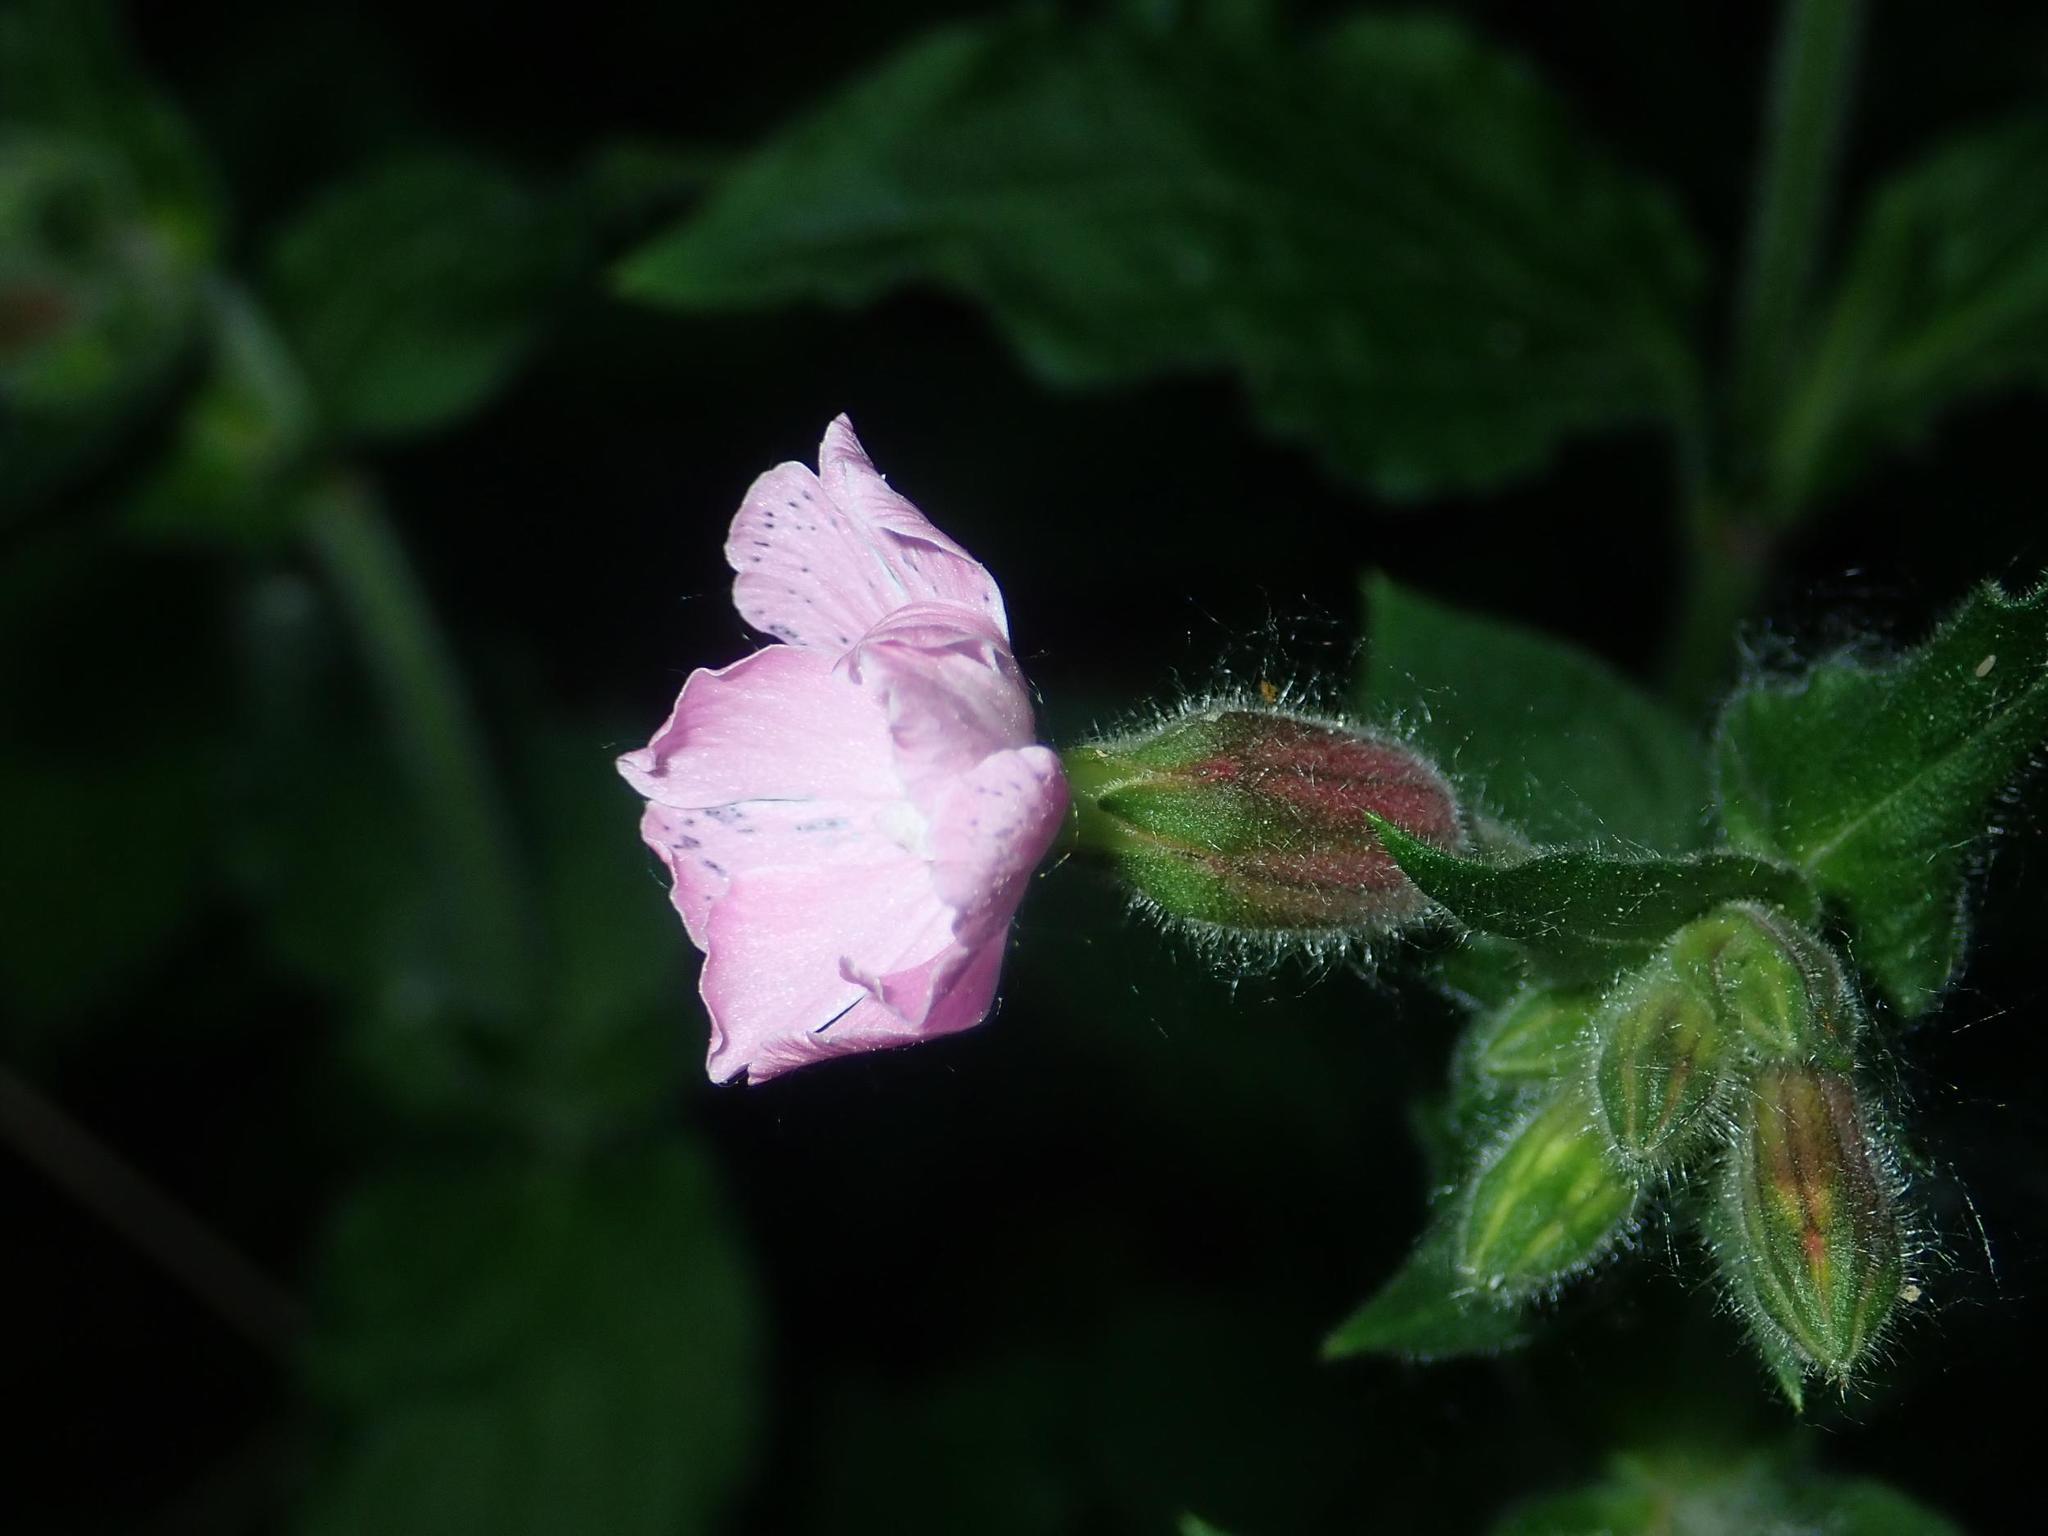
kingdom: Plantae
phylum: Tracheophyta
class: Magnoliopsida
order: Caryophyllales
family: Caryophyllaceae
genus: Silene
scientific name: Silene dioica
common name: Red campion
